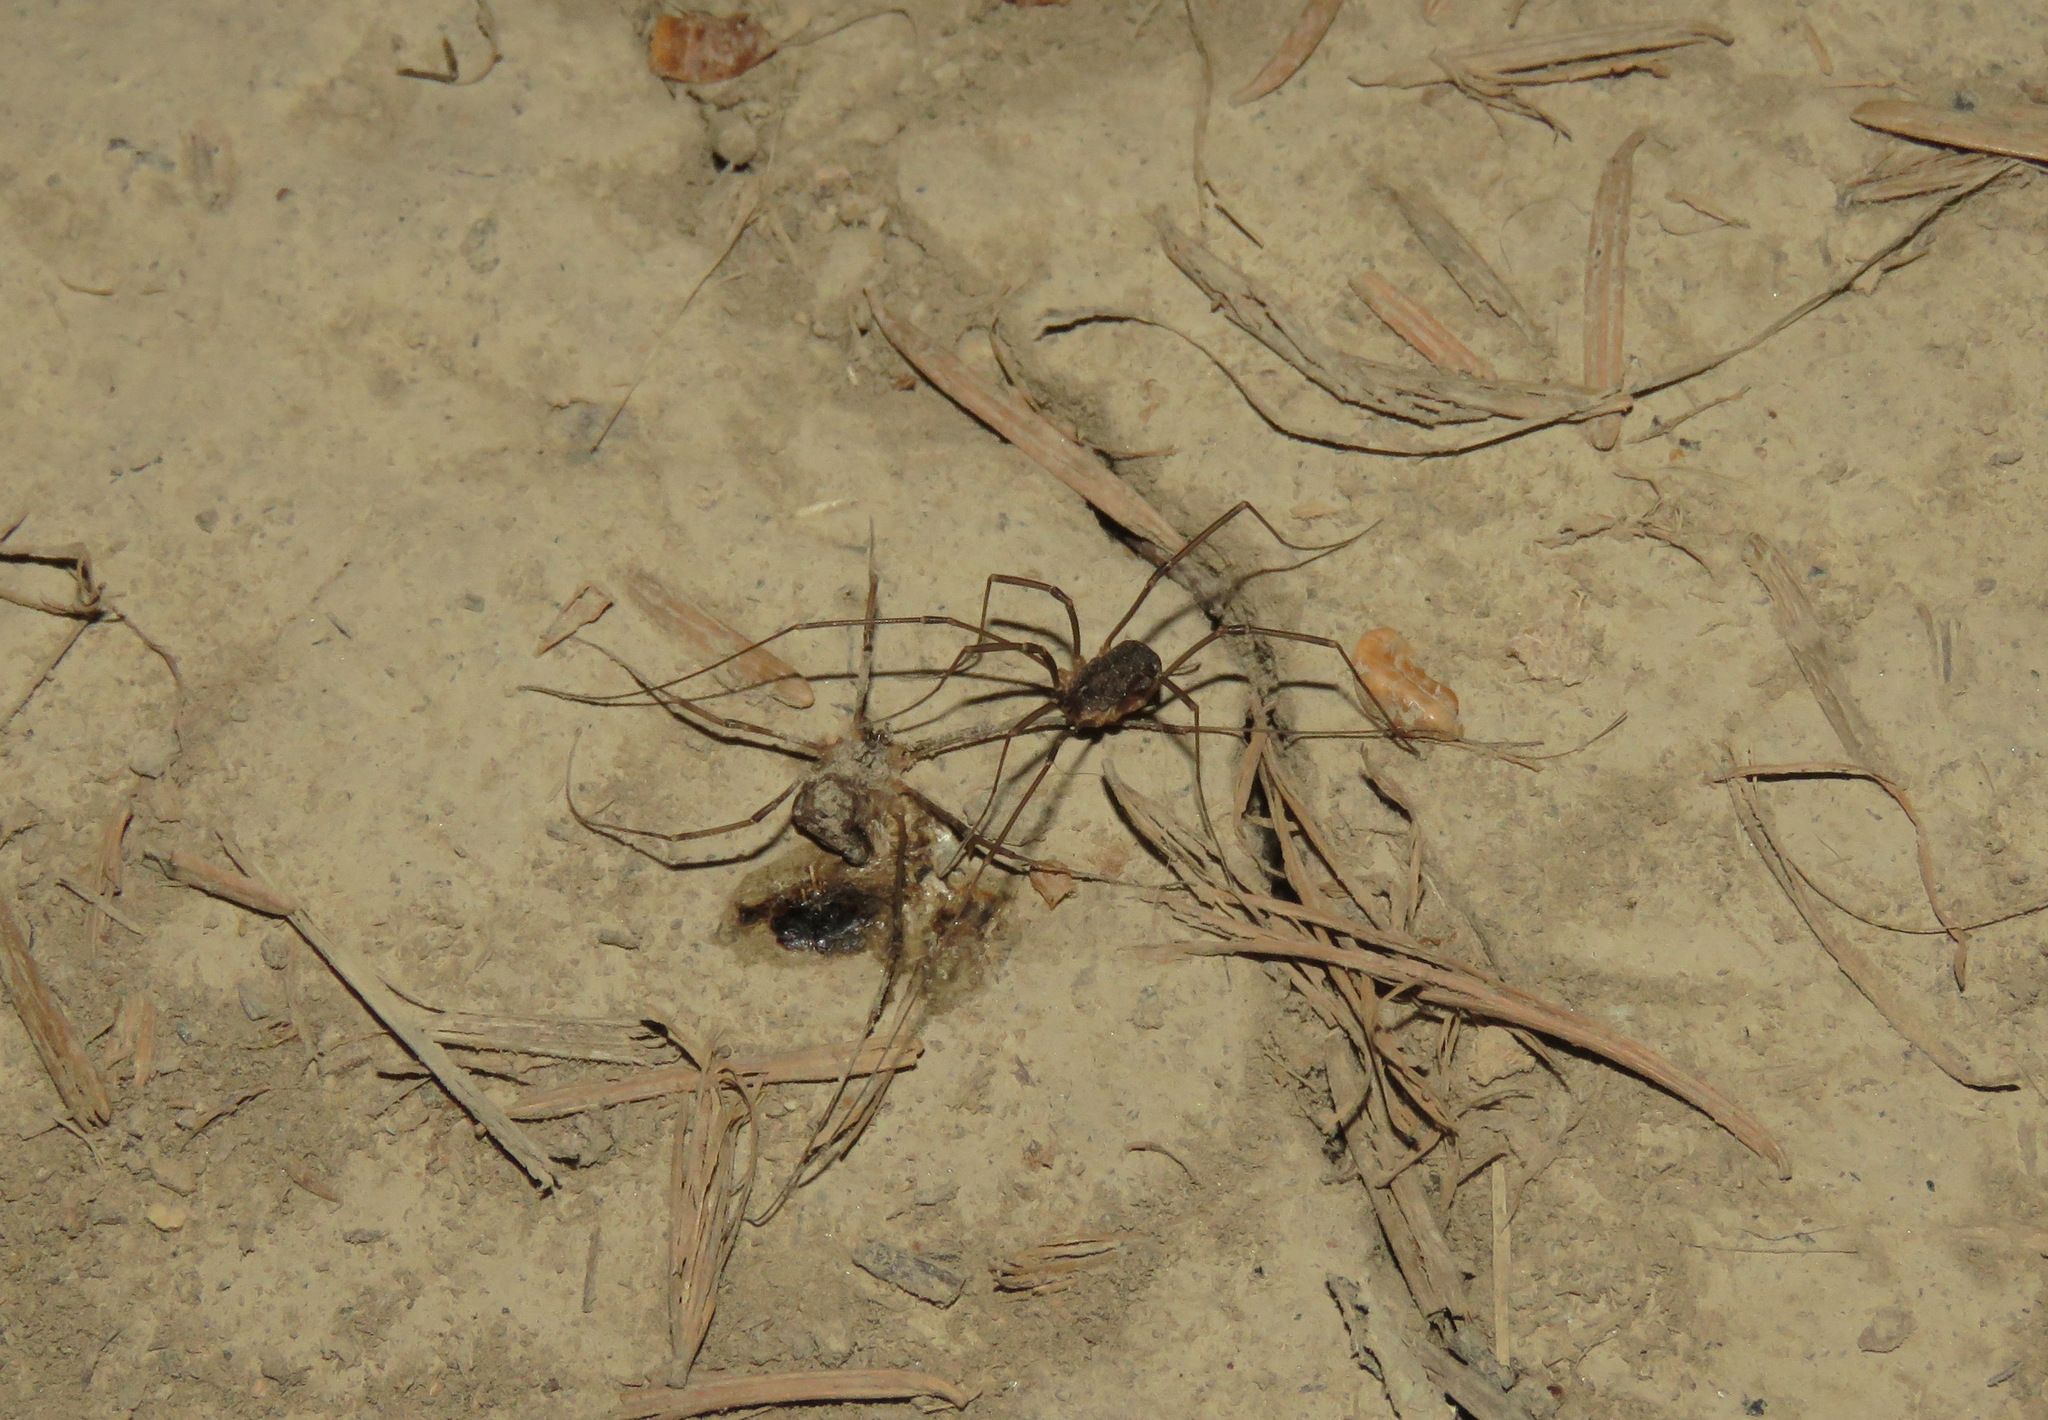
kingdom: Animalia
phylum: Arthropoda
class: Arachnida
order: Opiliones
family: Sclerosomatidae
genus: Togwoteeus
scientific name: Togwoteeus biceps
